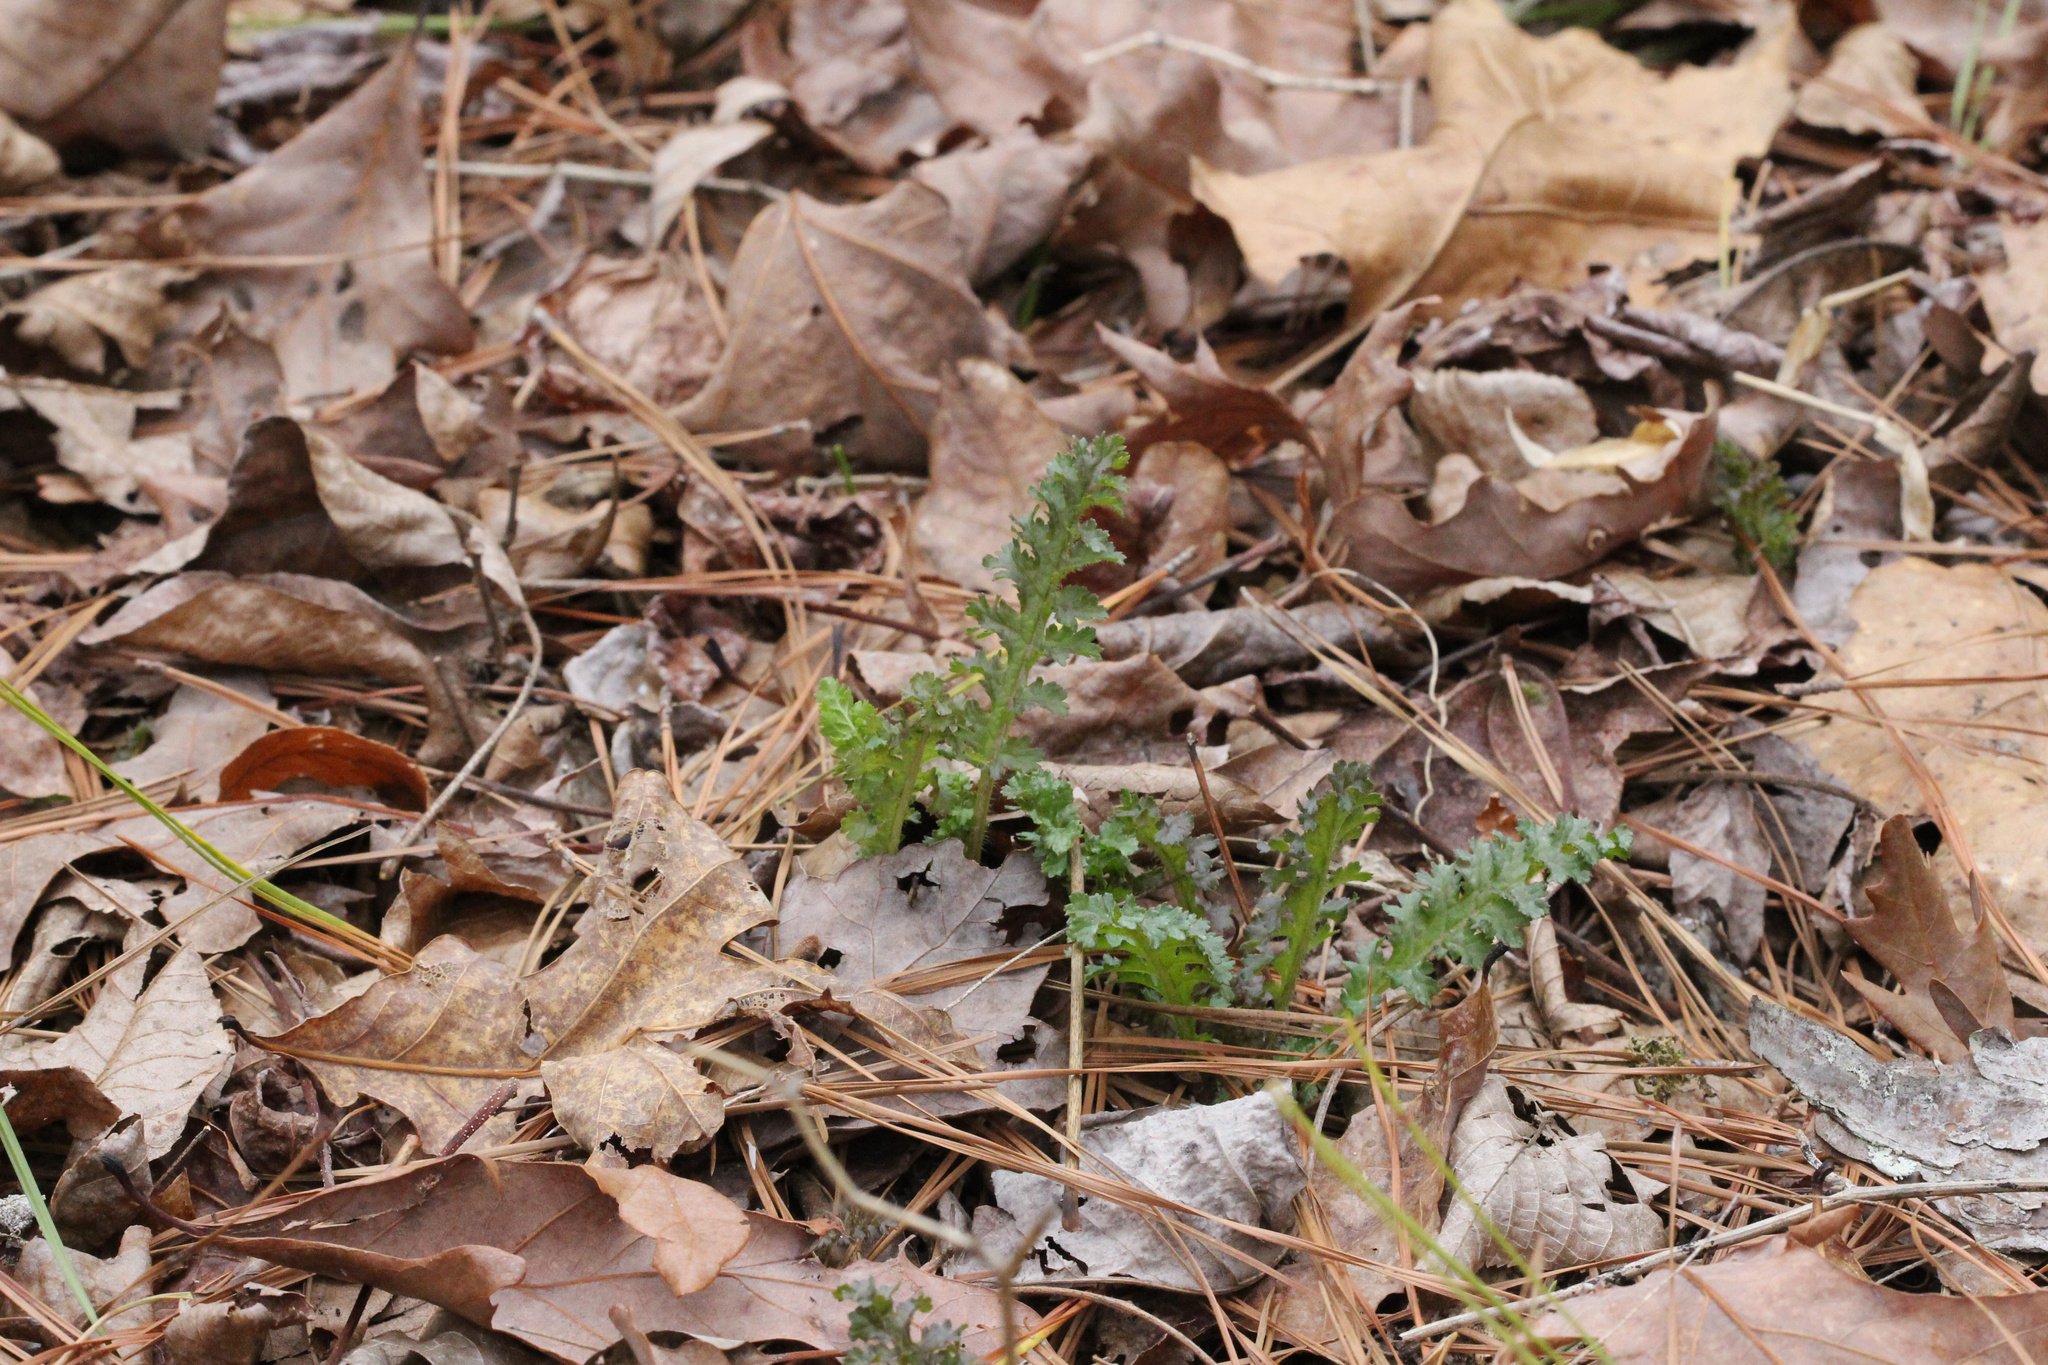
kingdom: Plantae
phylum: Tracheophyta
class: Magnoliopsida
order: Lamiales
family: Orobanchaceae
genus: Pedicularis
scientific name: Pedicularis canadensis
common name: Early lousewort
